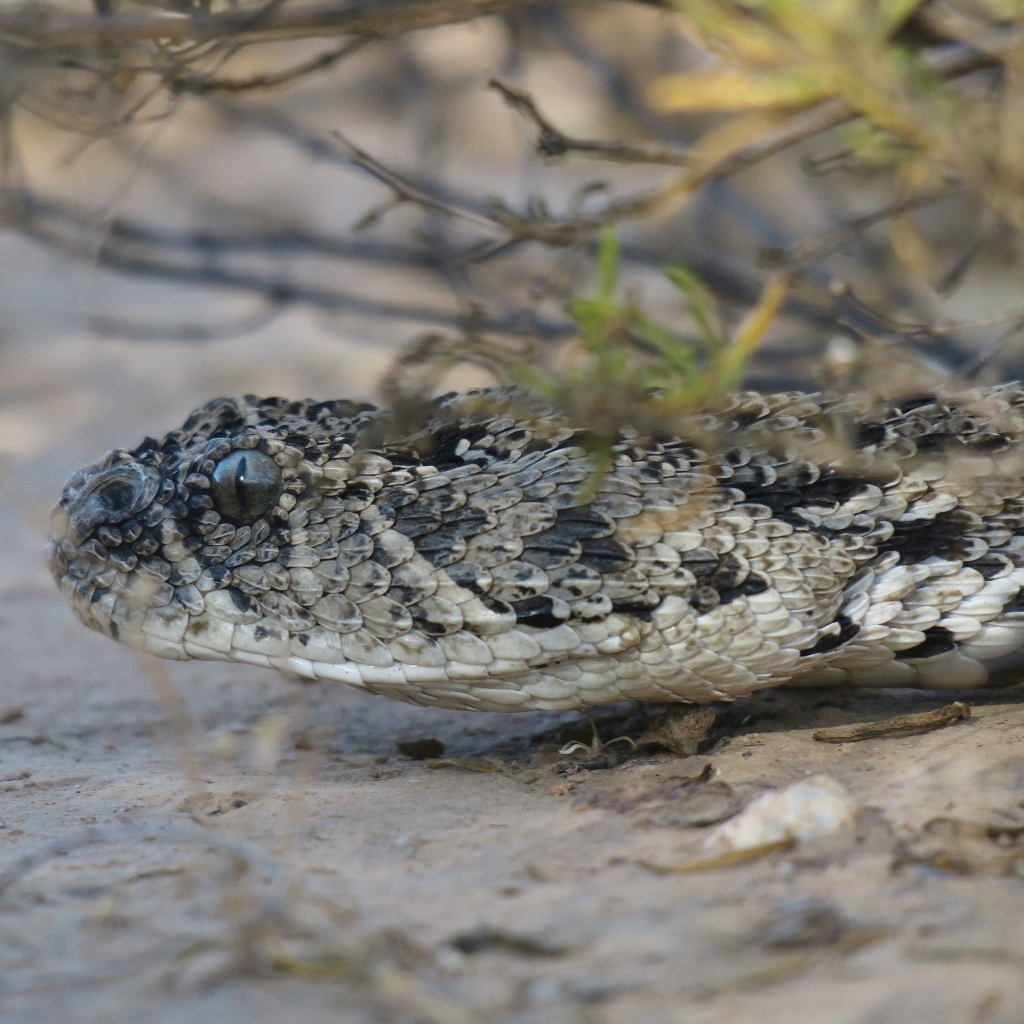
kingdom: Animalia
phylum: Chordata
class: Squamata
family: Viperidae
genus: Bitis
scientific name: Bitis arietans
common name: Puff adder
